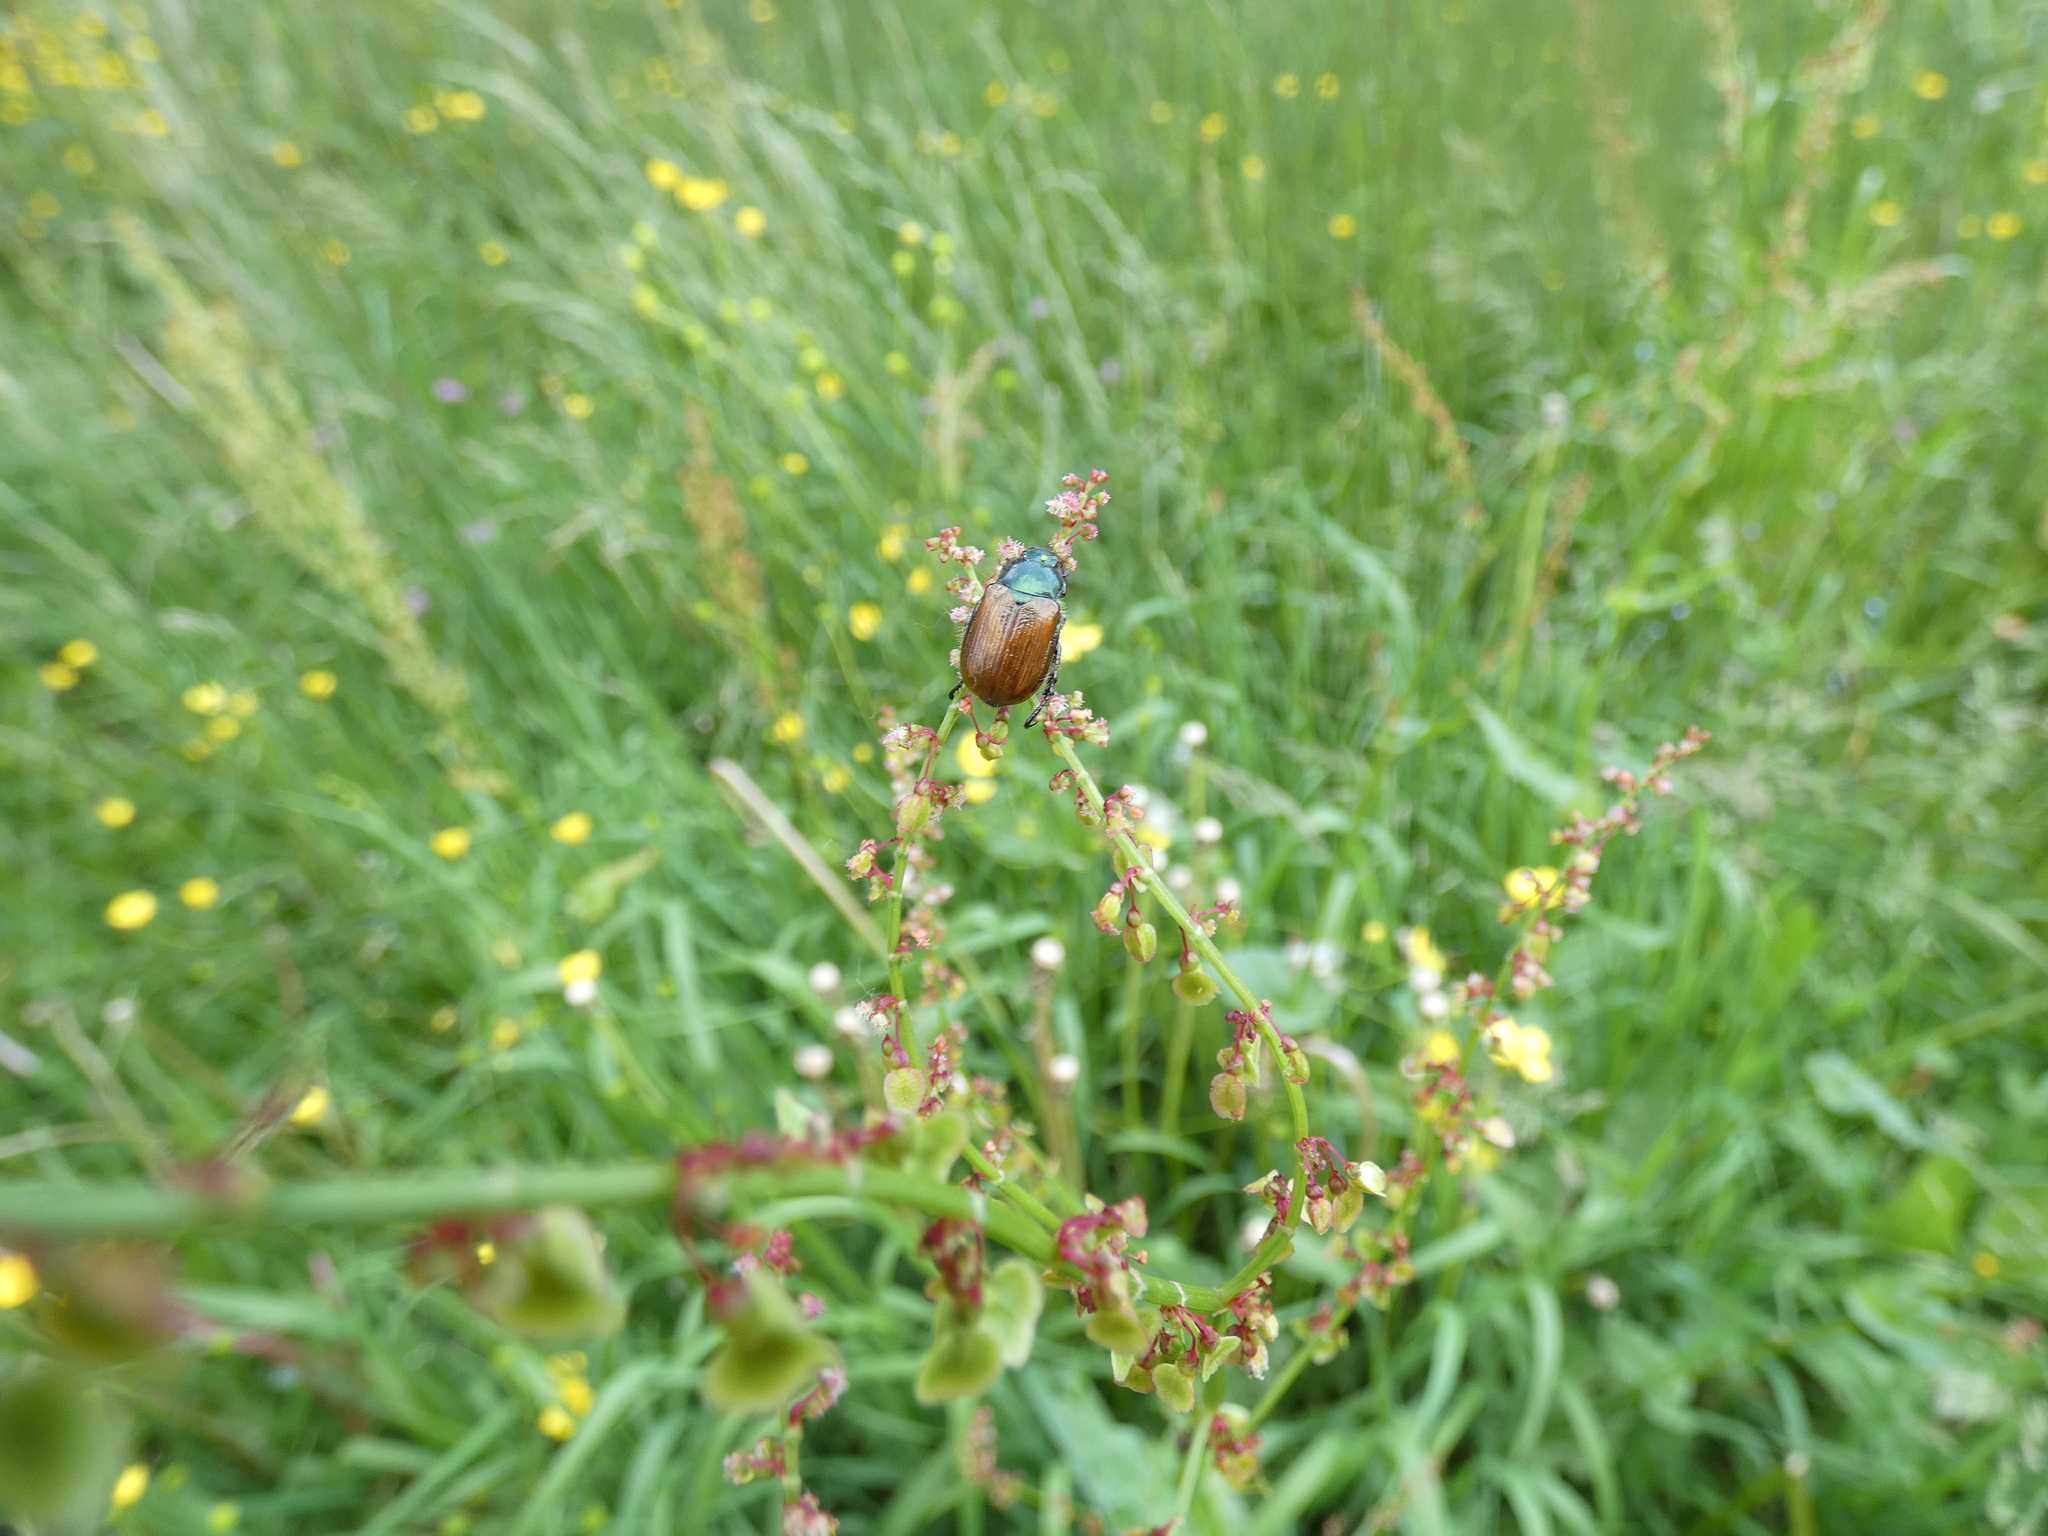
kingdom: Animalia
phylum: Arthropoda
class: Insecta
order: Coleoptera
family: Scarabaeidae
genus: Phyllopertha
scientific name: Phyllopertha horticola
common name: Garden chafer
